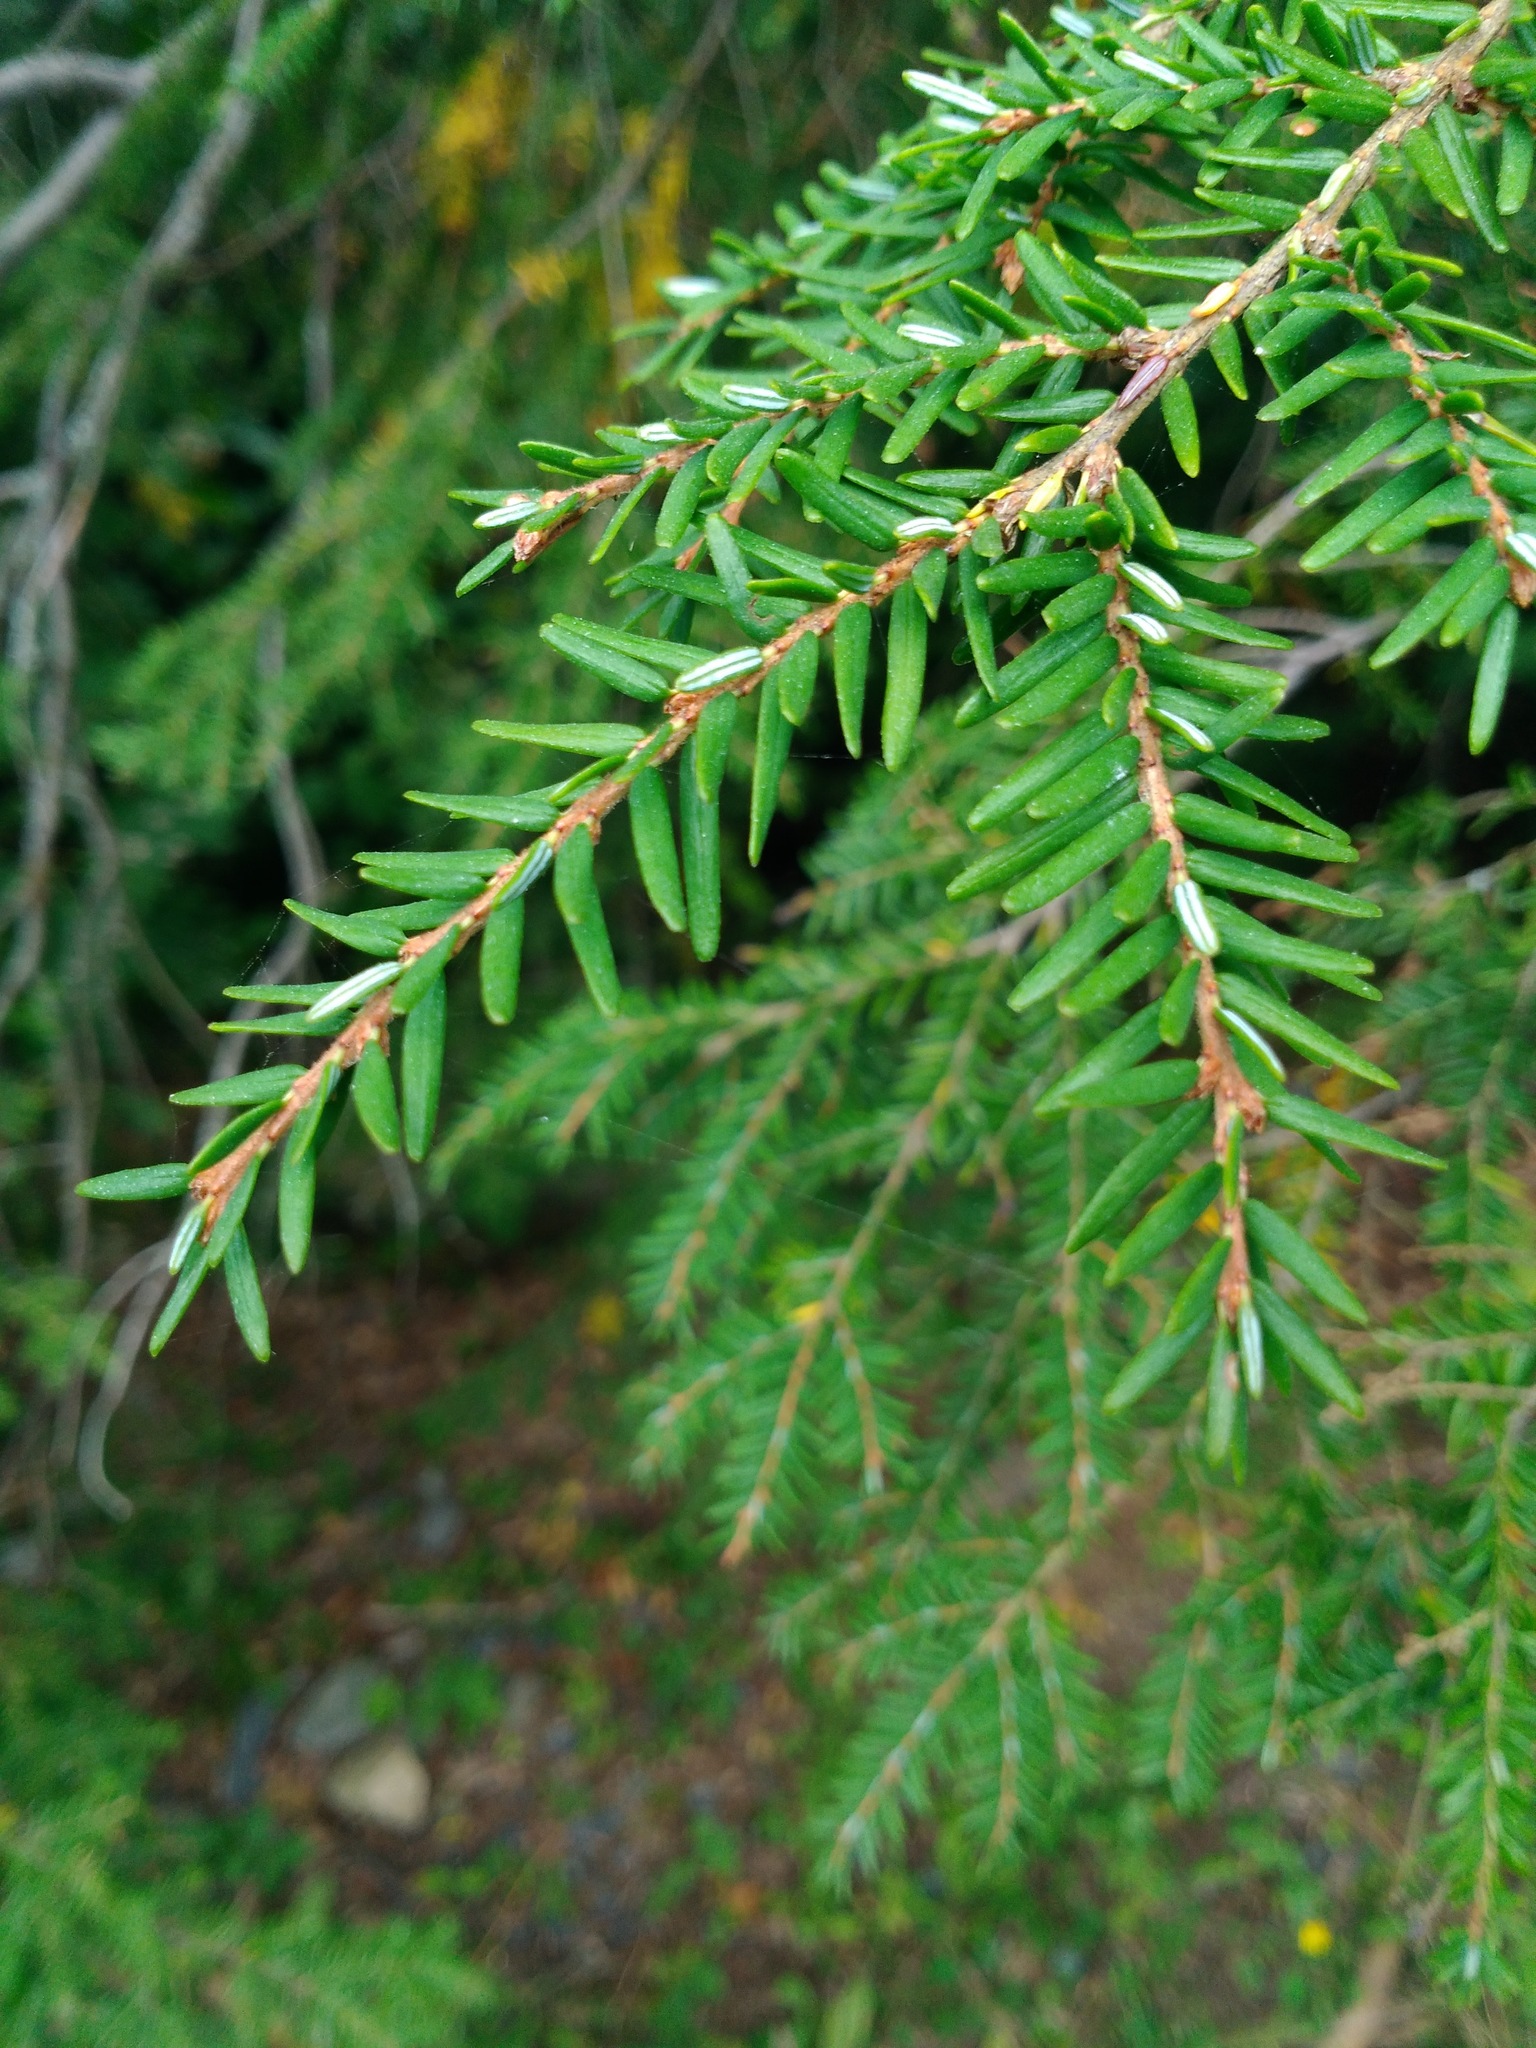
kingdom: Plantae
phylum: Tracheophyta
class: Pinopsida
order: Pinales
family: Pinaceae
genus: Tsuga
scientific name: Tsuga canadensis
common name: Eastern hemlock
